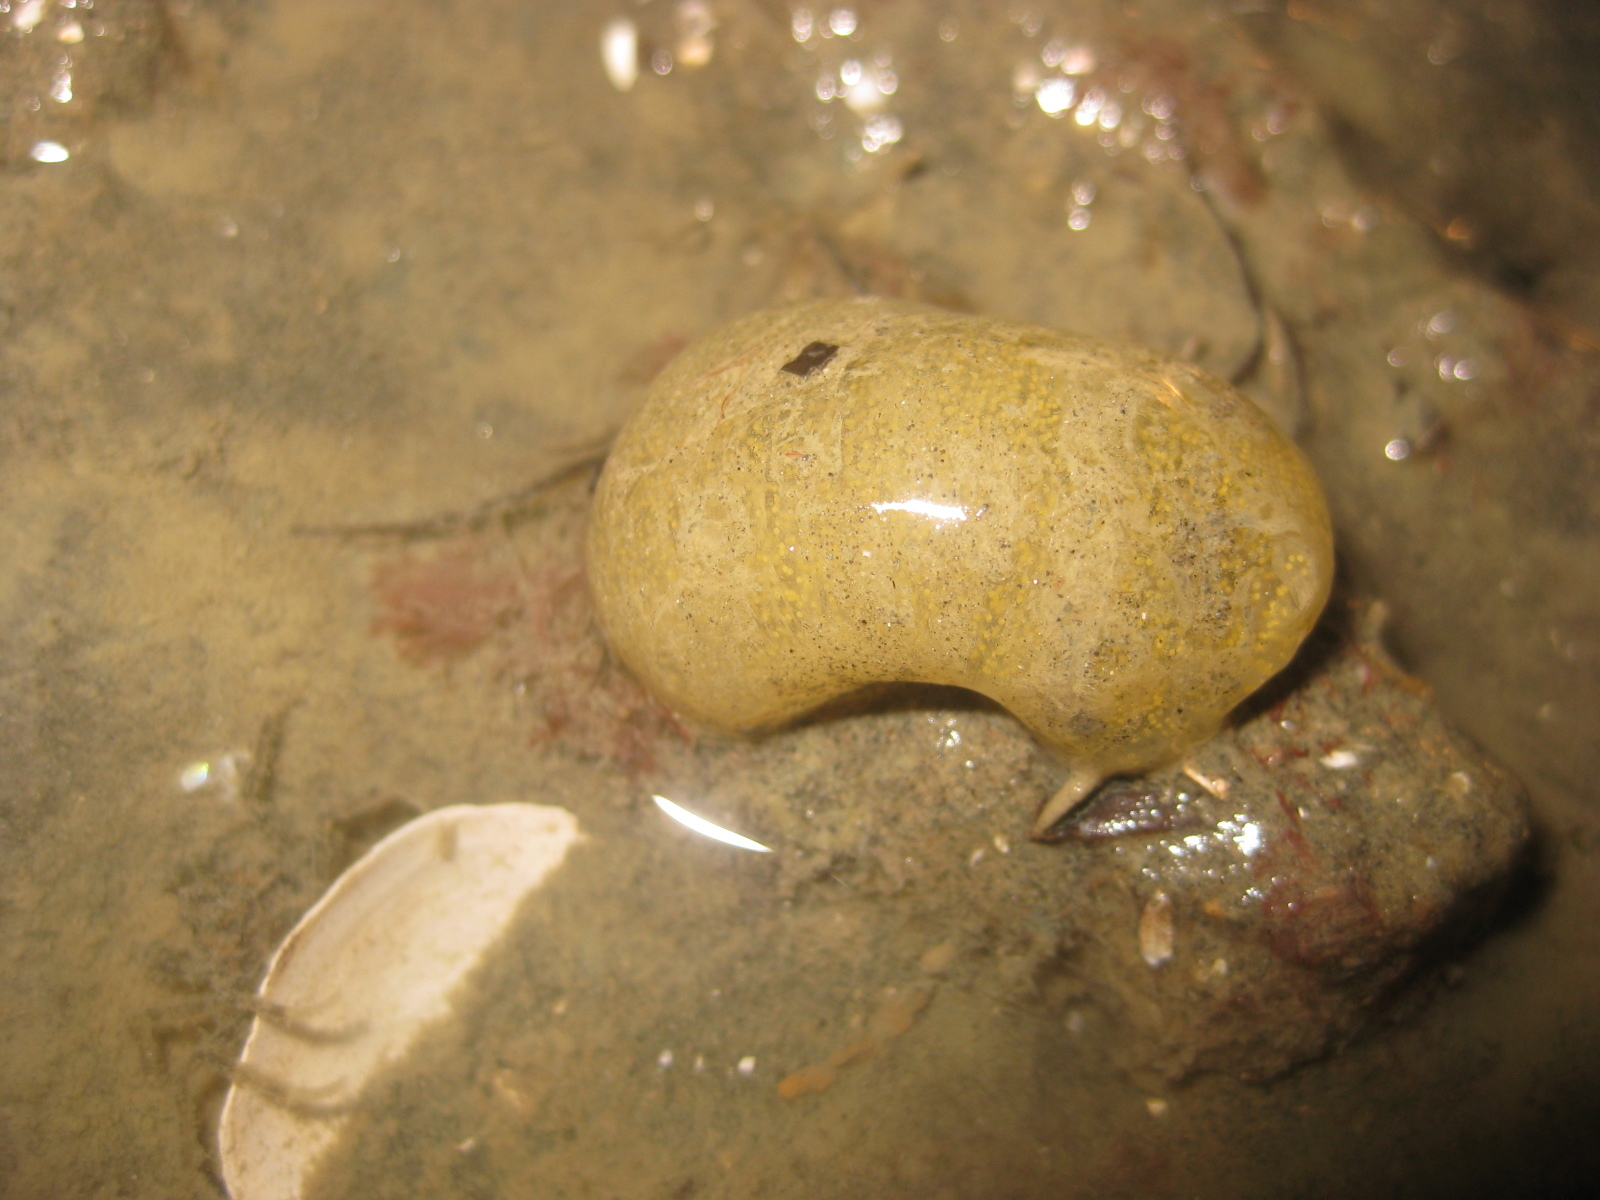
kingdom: Animalia
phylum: Mollusca
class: Gastropoda
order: Cephalaspidea
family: Haminoeidae
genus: Papawera
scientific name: Papawera zelandiae
